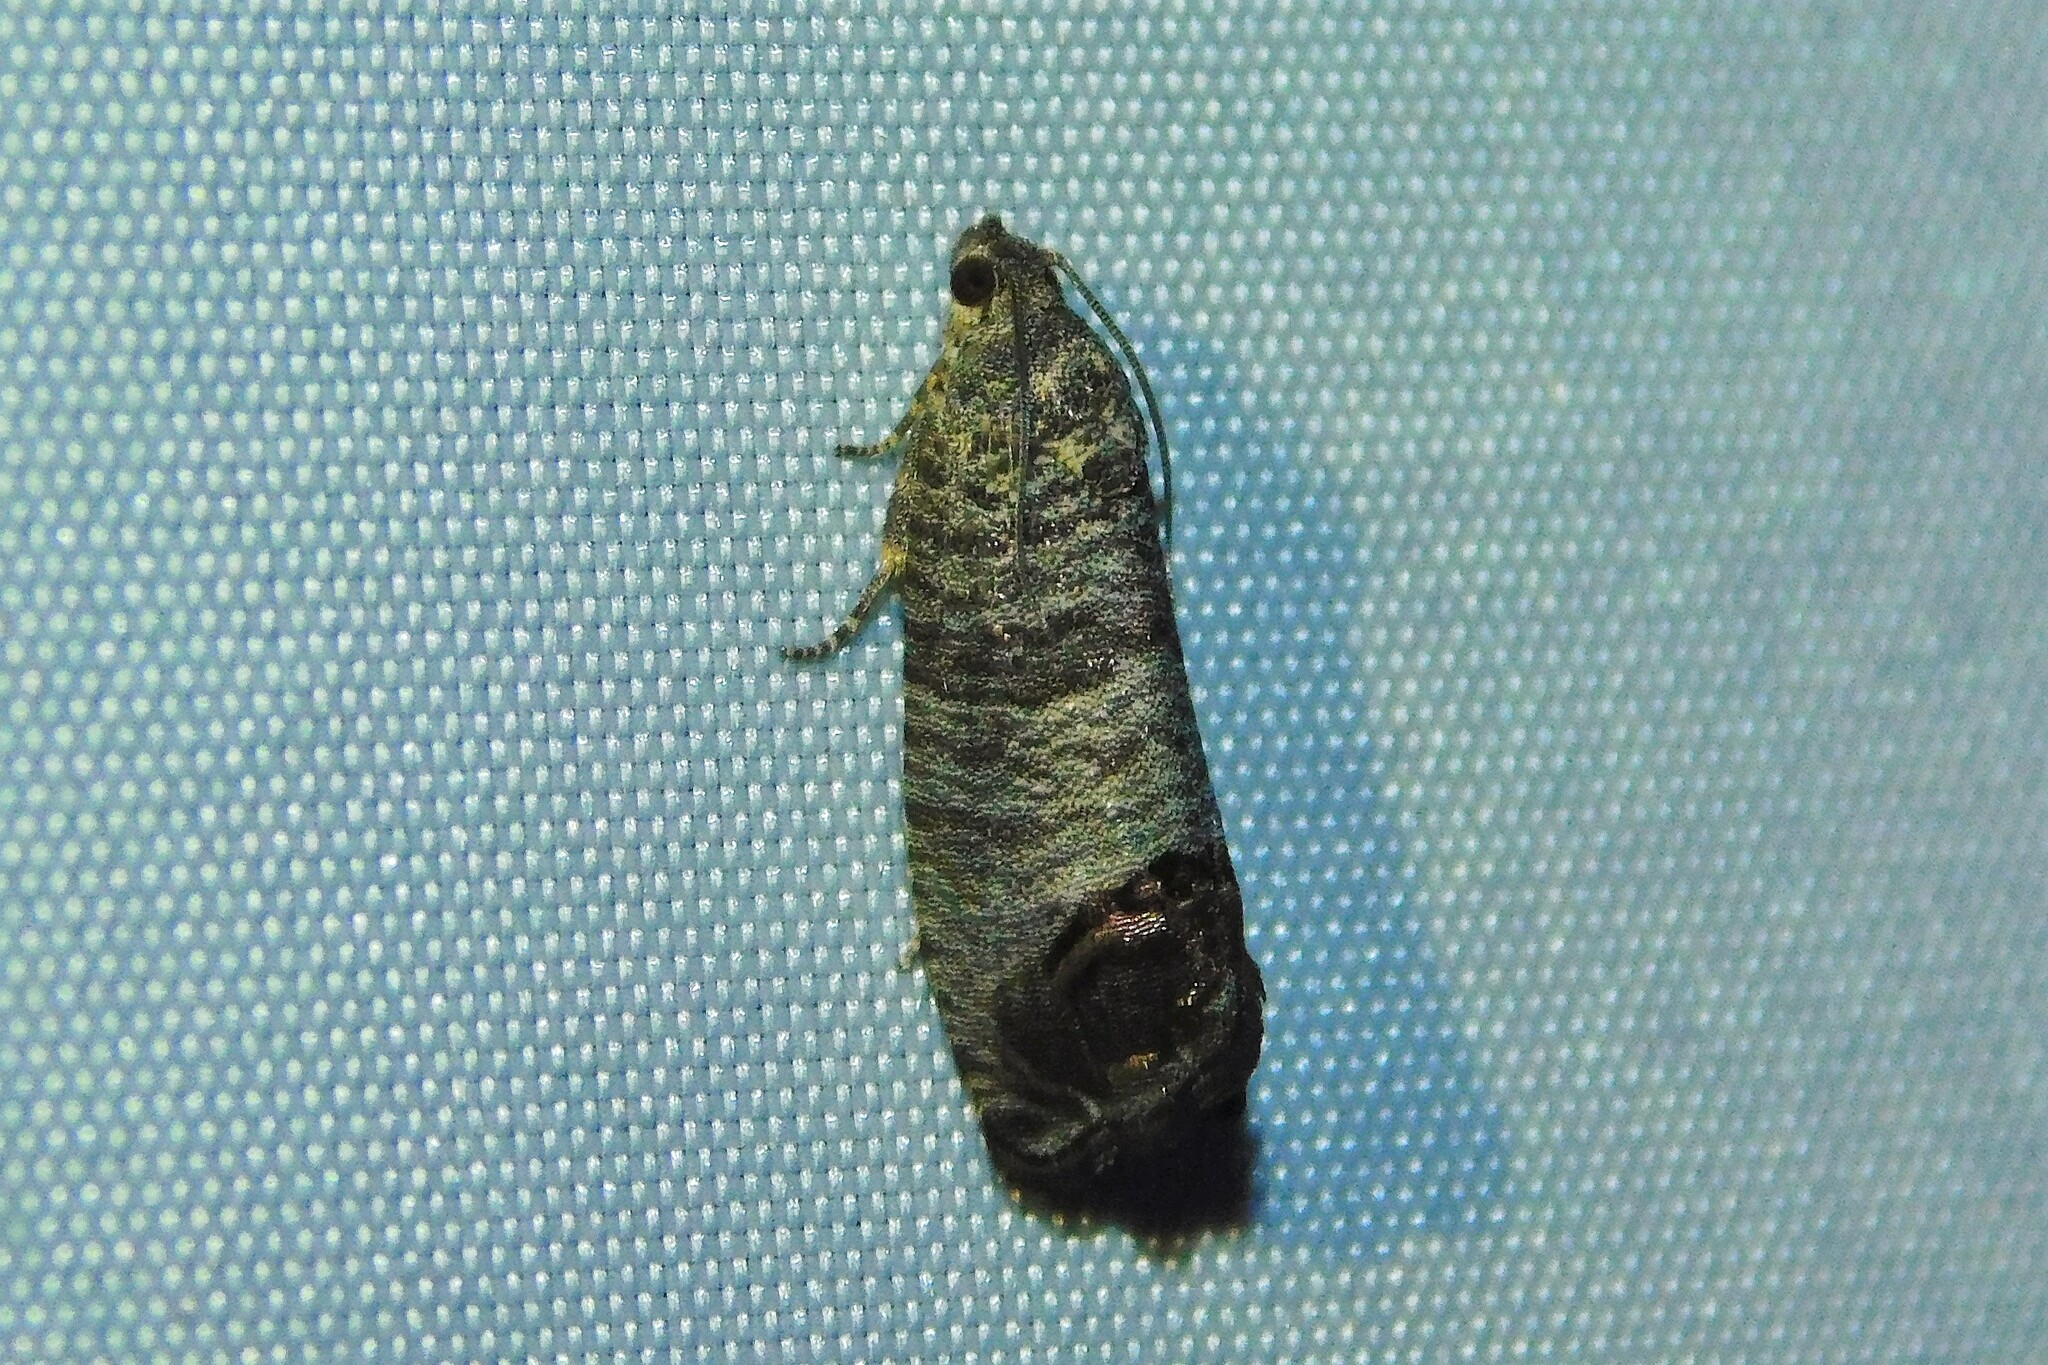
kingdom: Animalia
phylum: Arthropoda
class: Insecta
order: Lepidoptera
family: Tortricidae
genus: Cydia
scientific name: Cydia pomonella
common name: Codling moth
